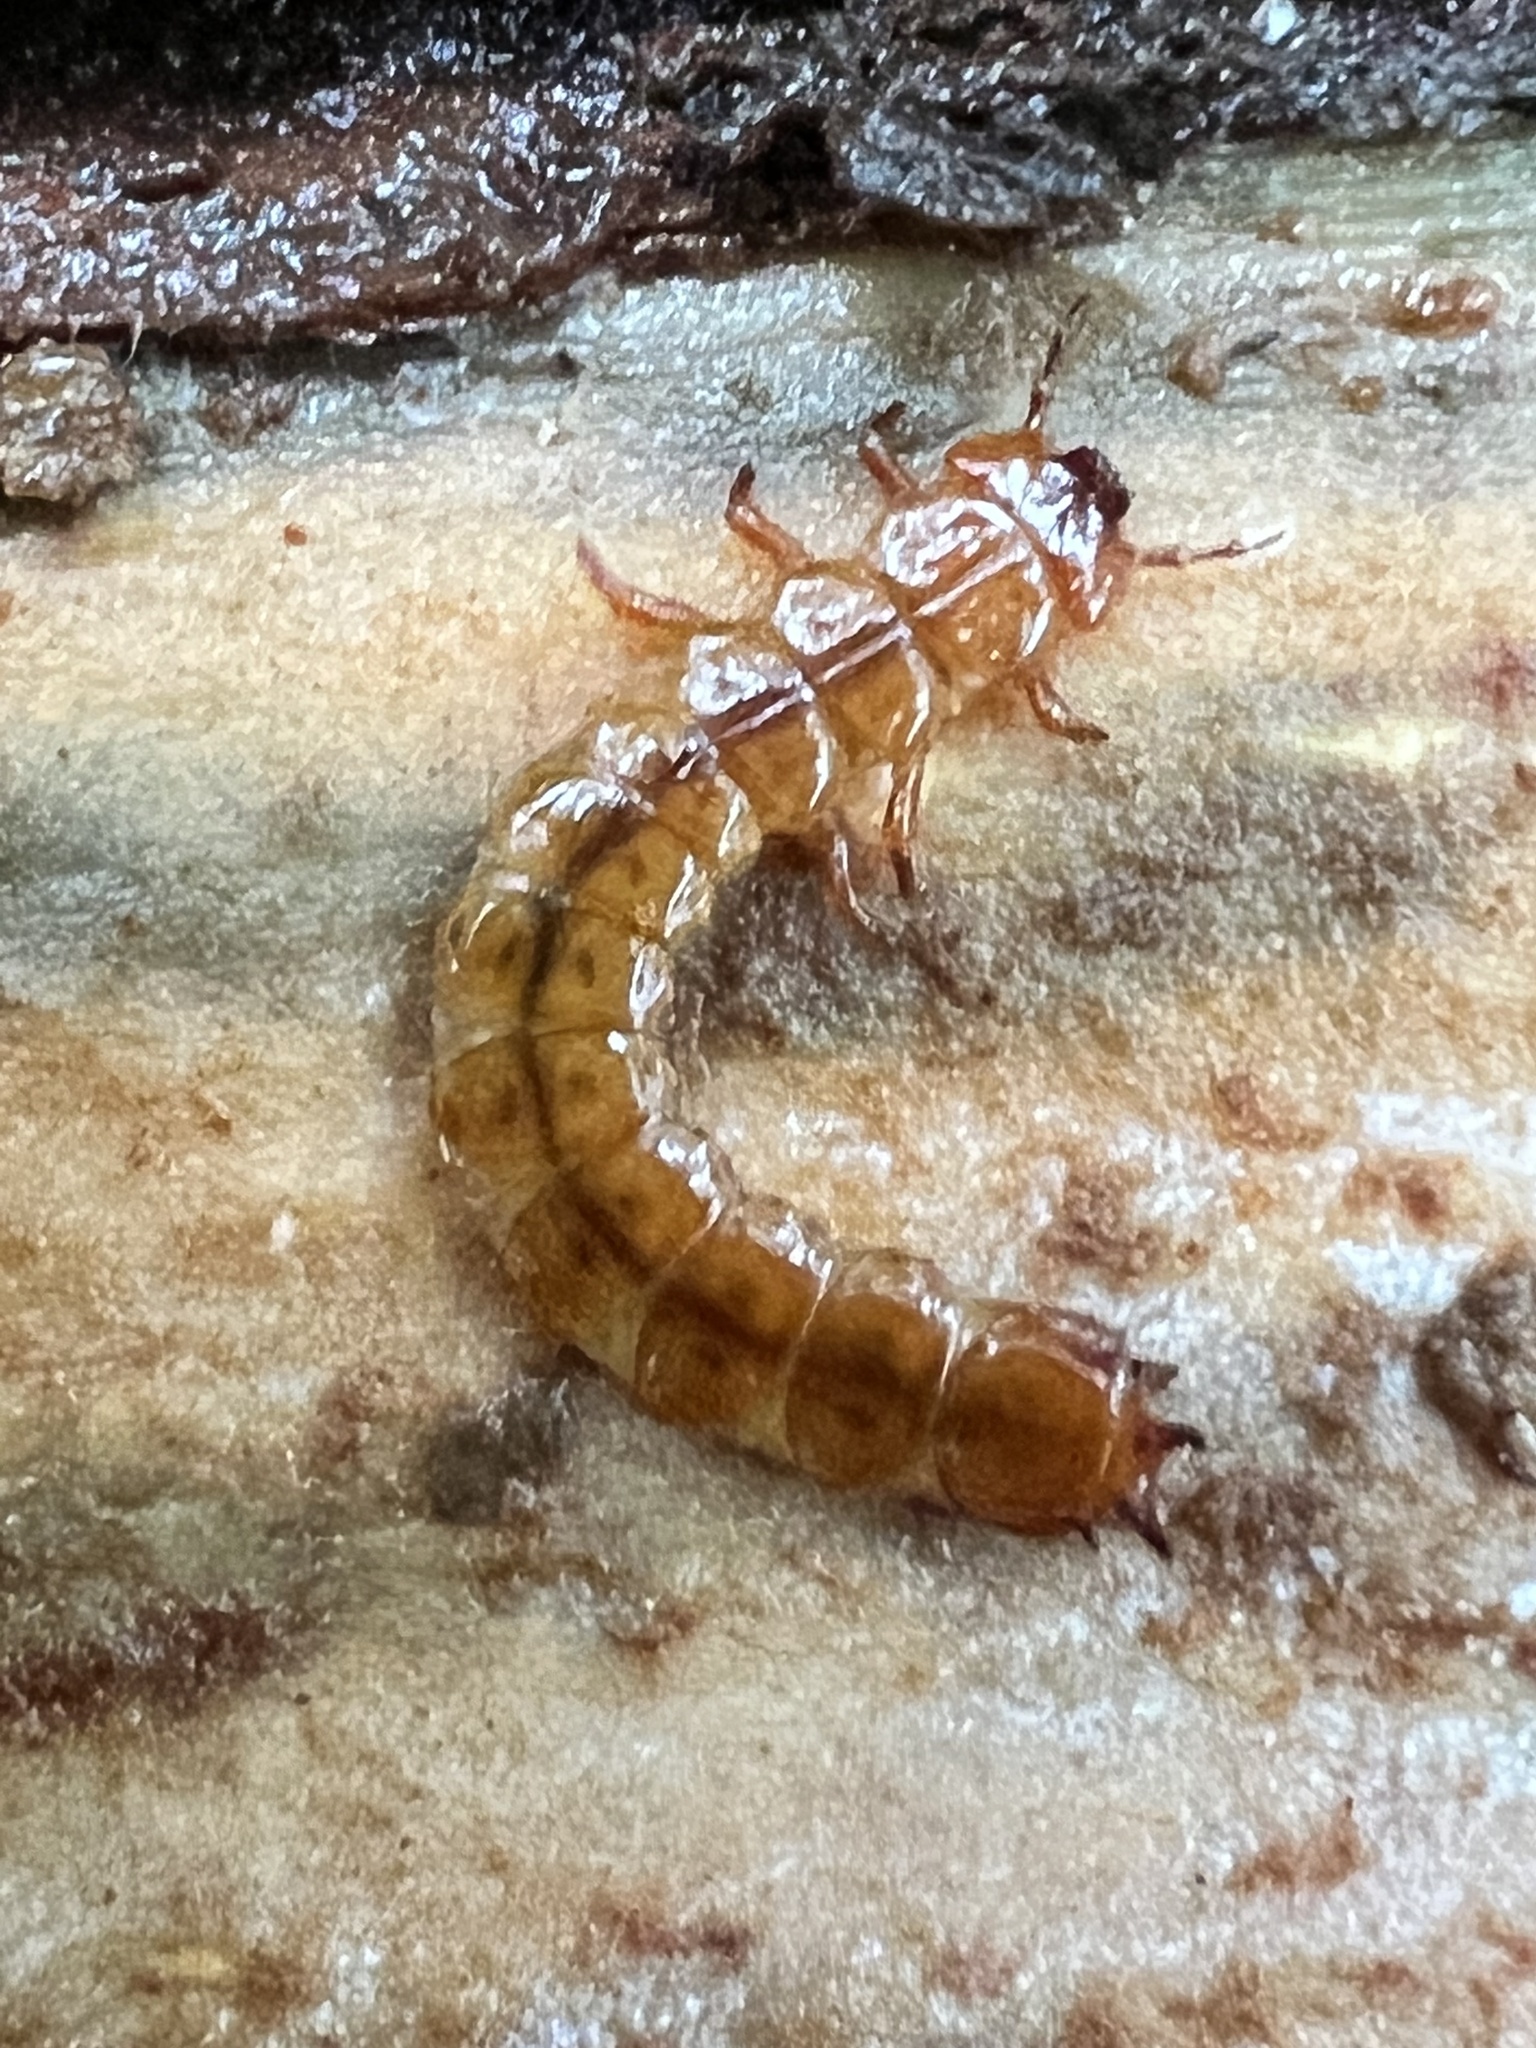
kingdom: Animalia
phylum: Arthropoda
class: Insecta
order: Coleoptera
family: Cucujidae
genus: Cucujus
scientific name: Cucujus clavipes
